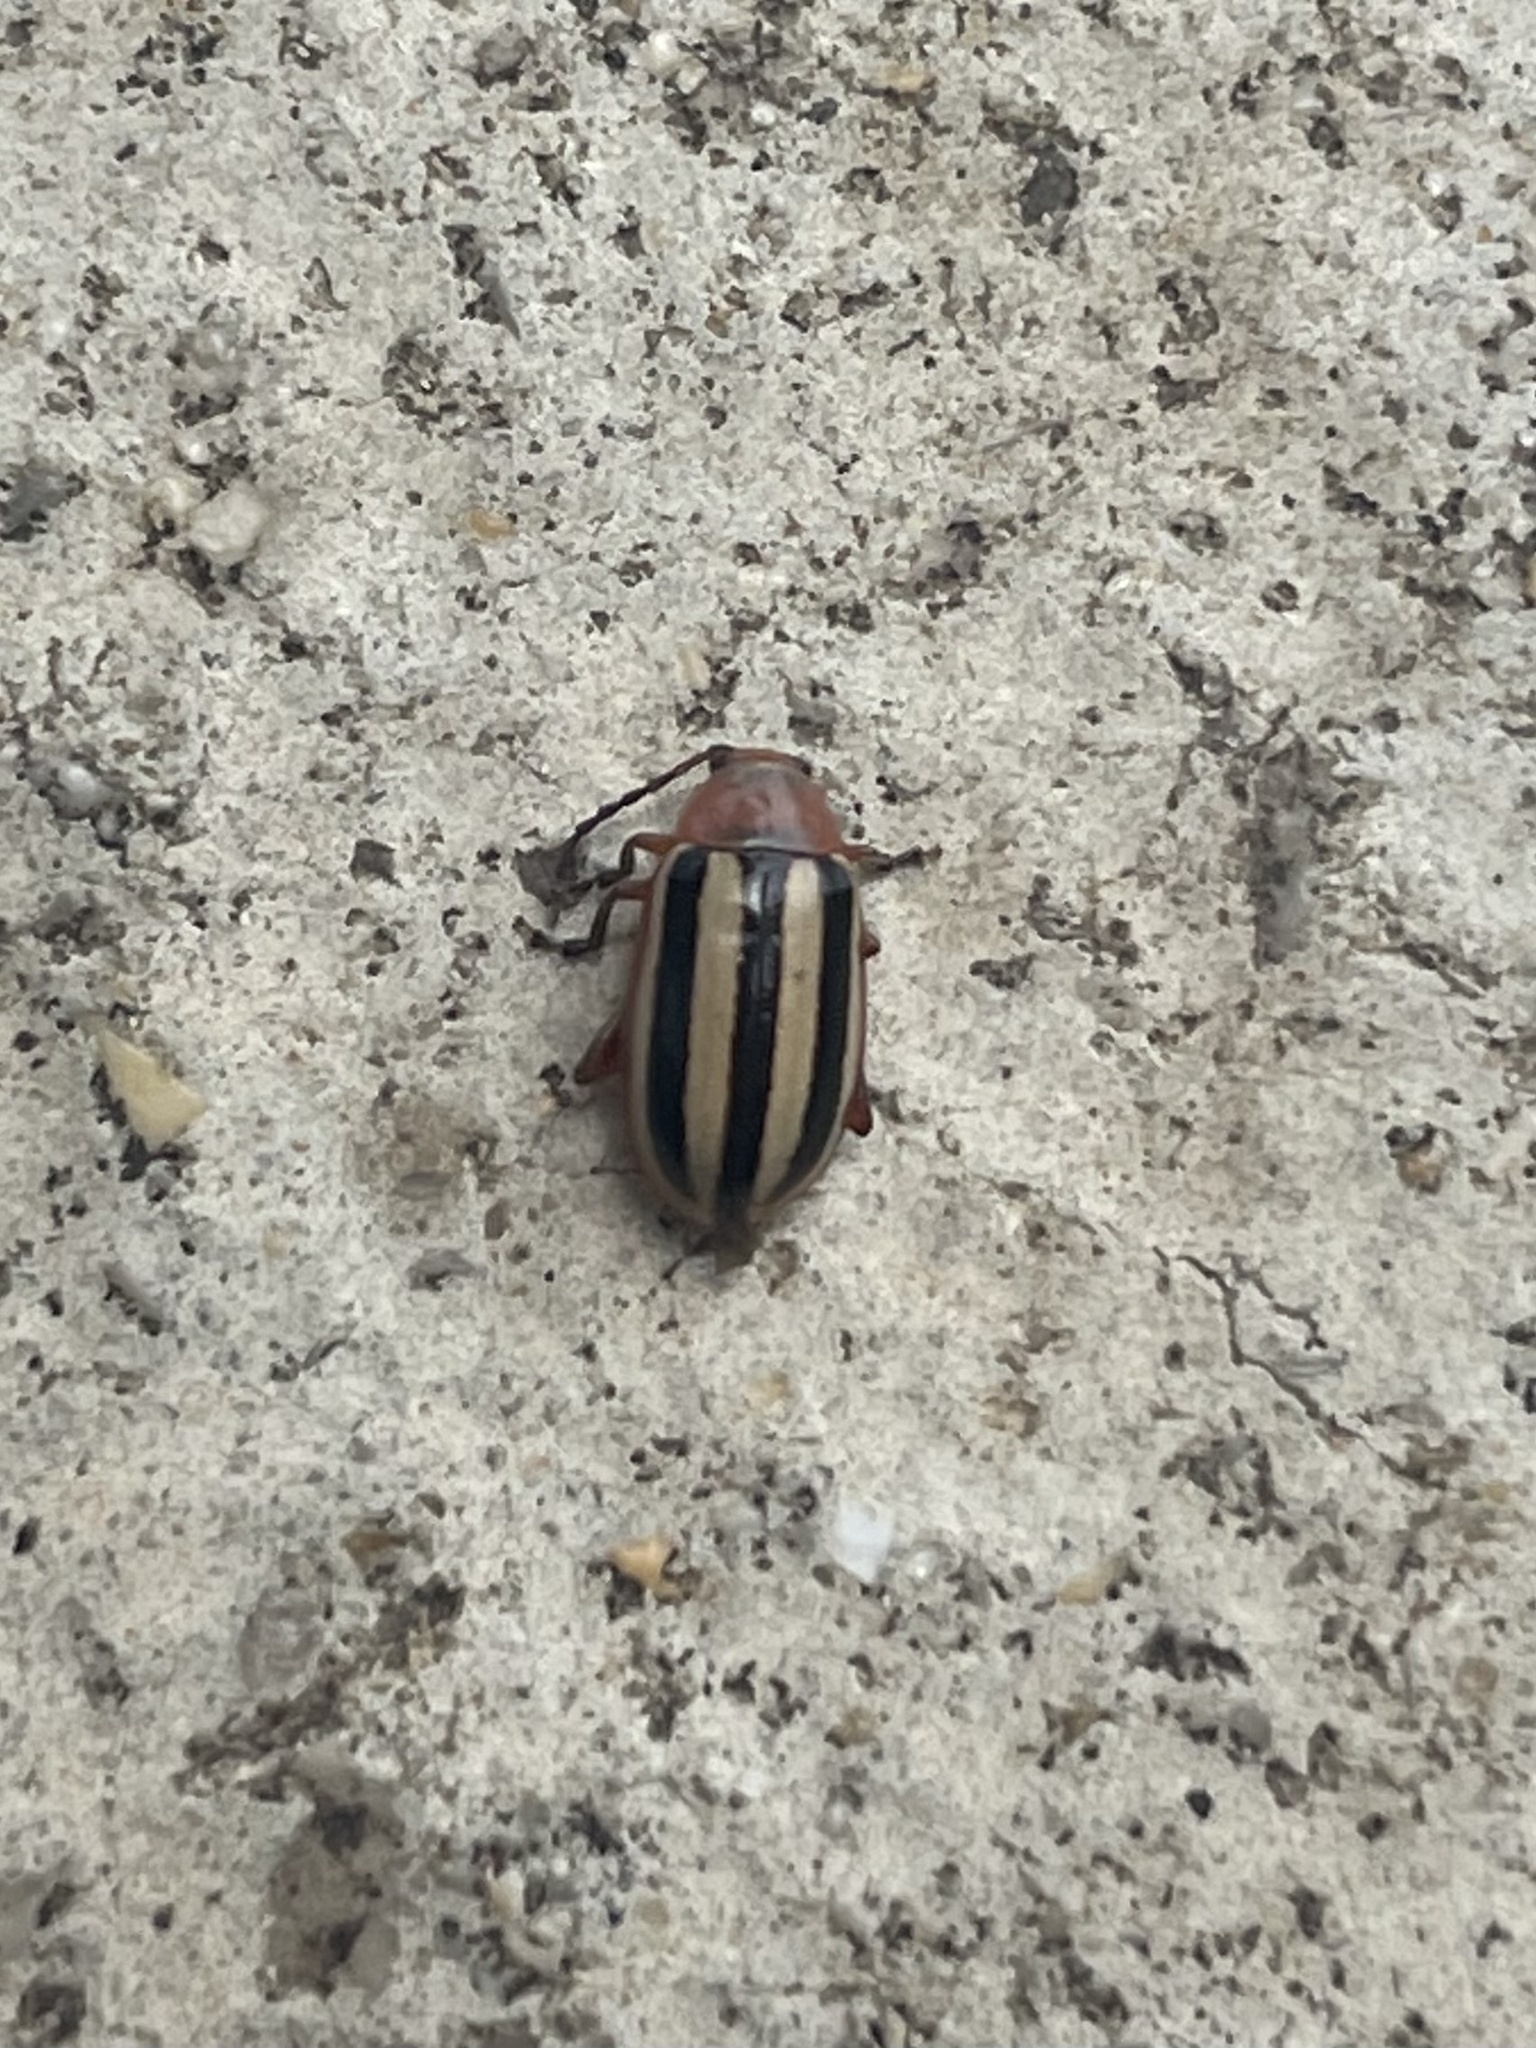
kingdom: Animalia
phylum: Arthropoda
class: Insecta
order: Coleoptera
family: Chrysomelidae
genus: Disonycha
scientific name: Disonycha leptolineata
